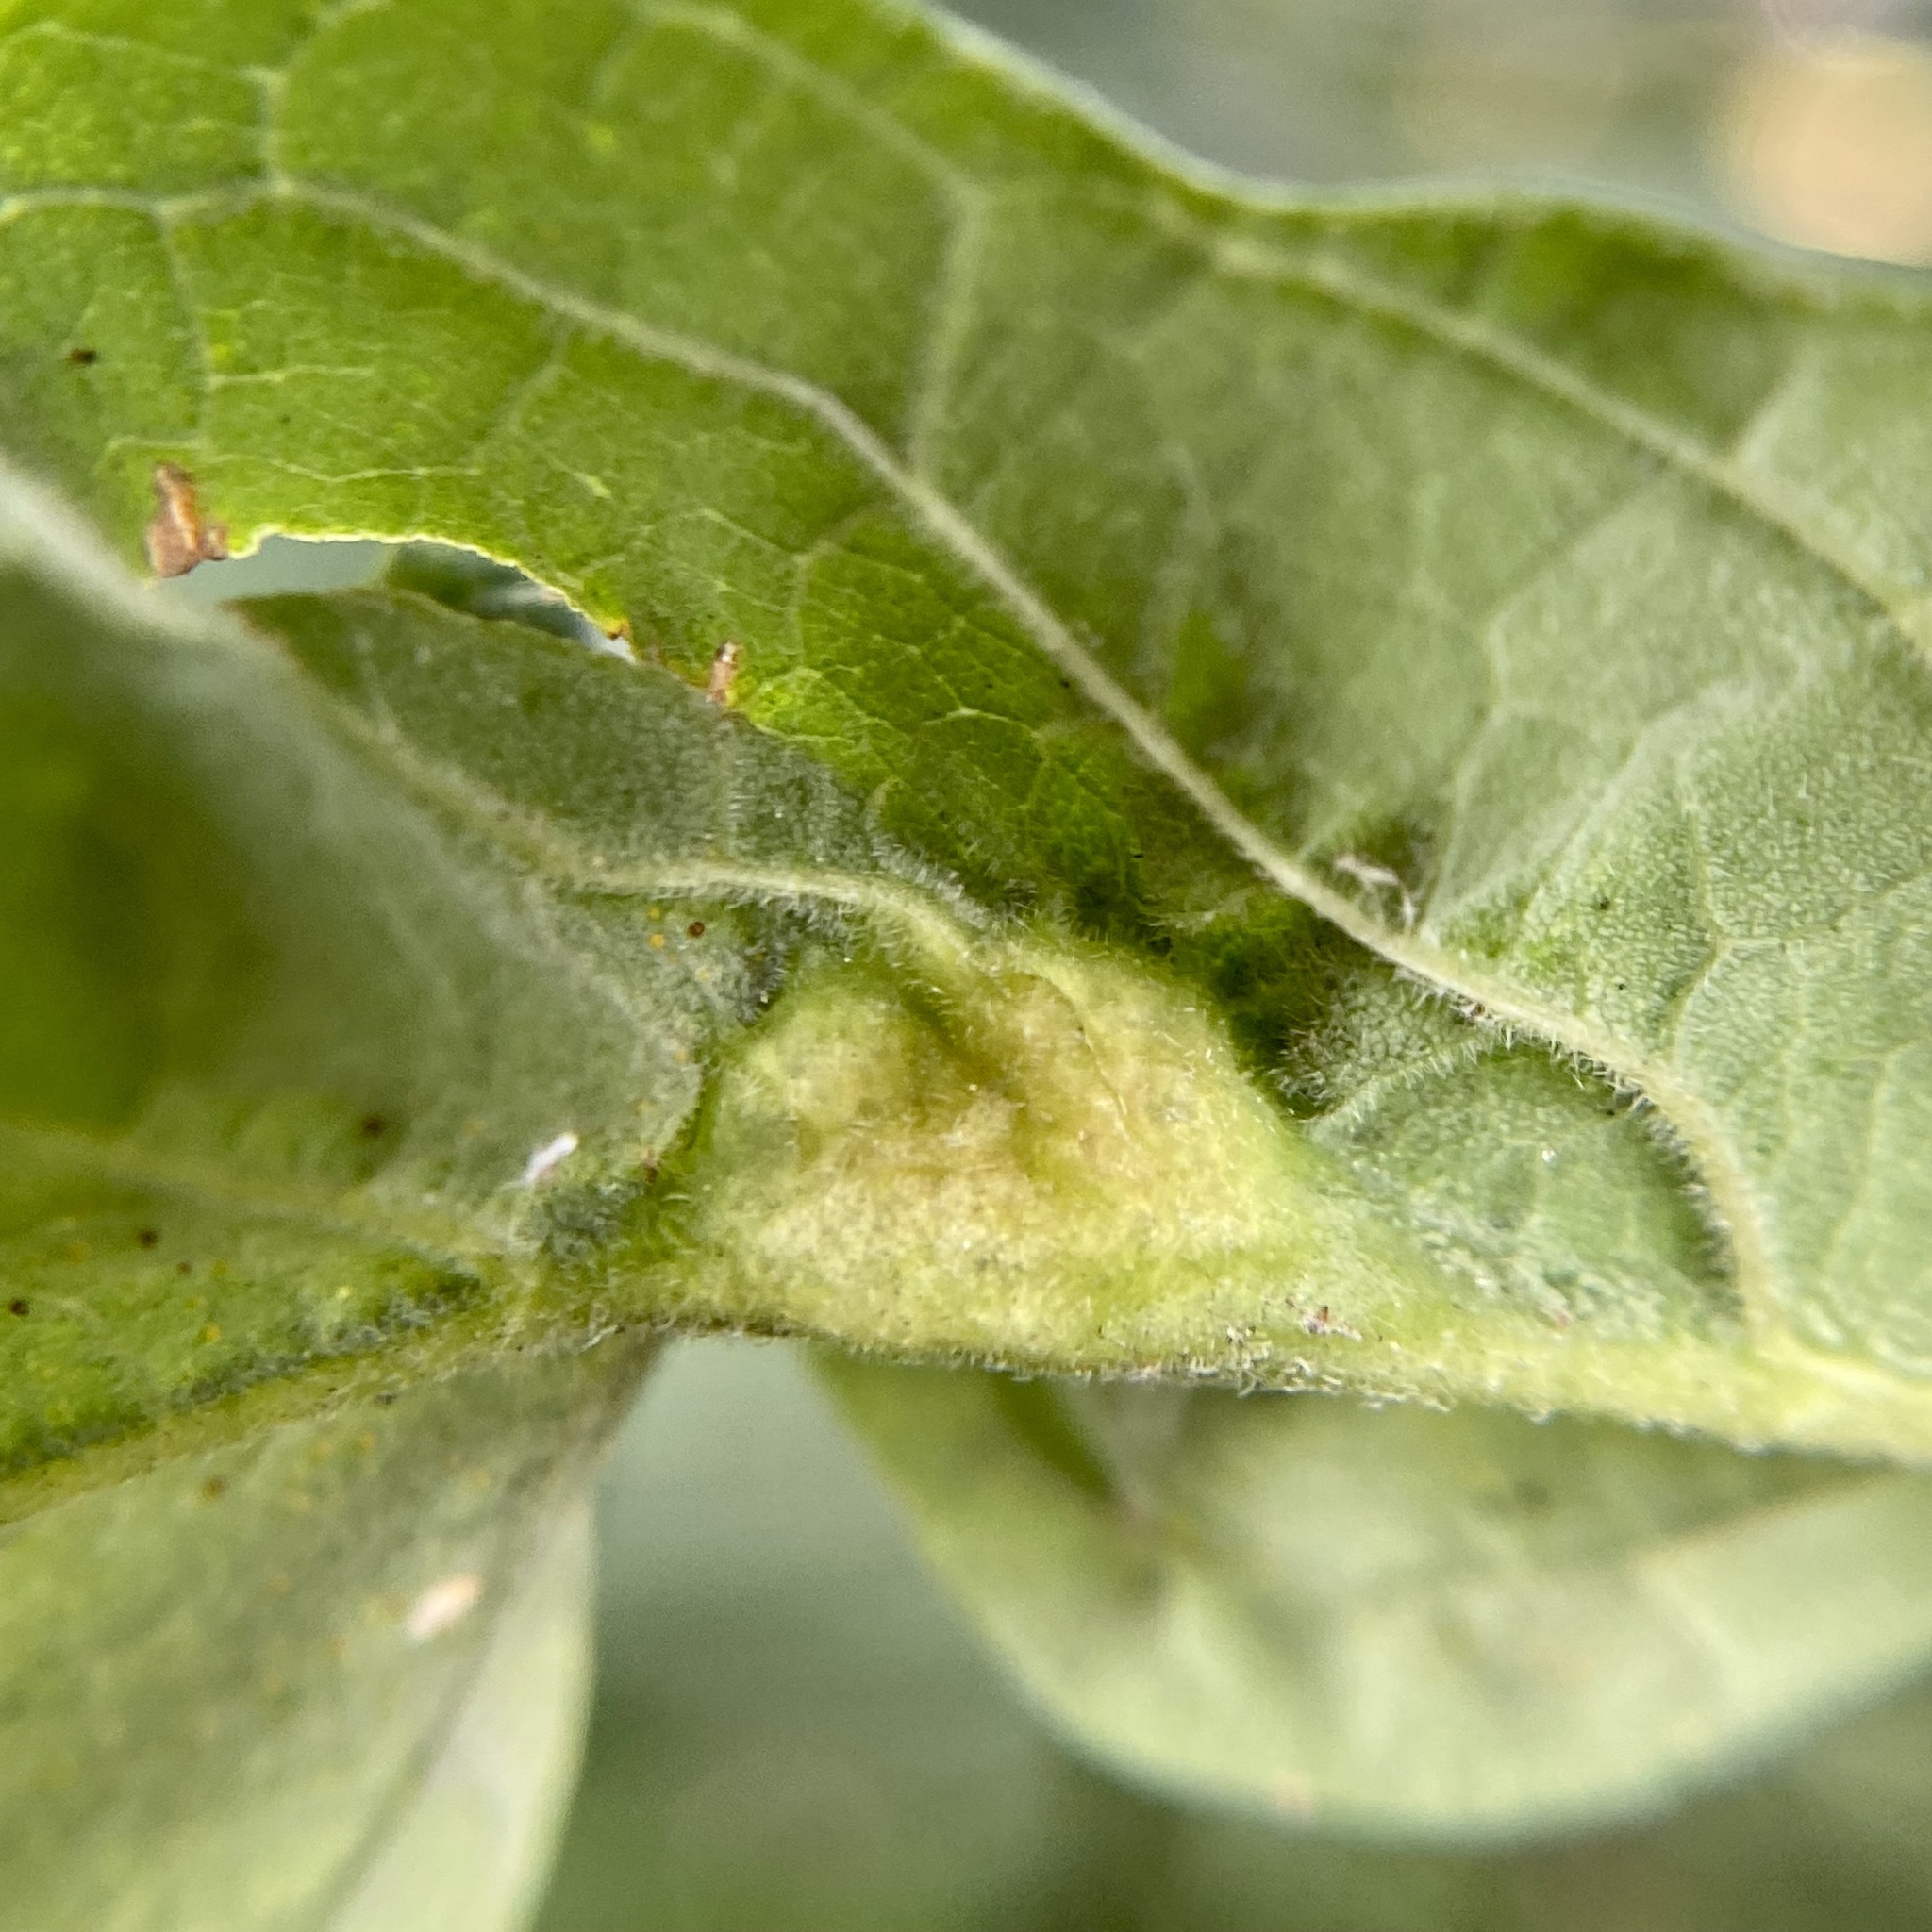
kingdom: Animalia
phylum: Arthropoda
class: Insecta
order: Diptera
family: Cecidomyiidae
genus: Dasineura
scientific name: Dasineura tumidosae
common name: Ash petiole gall midge
